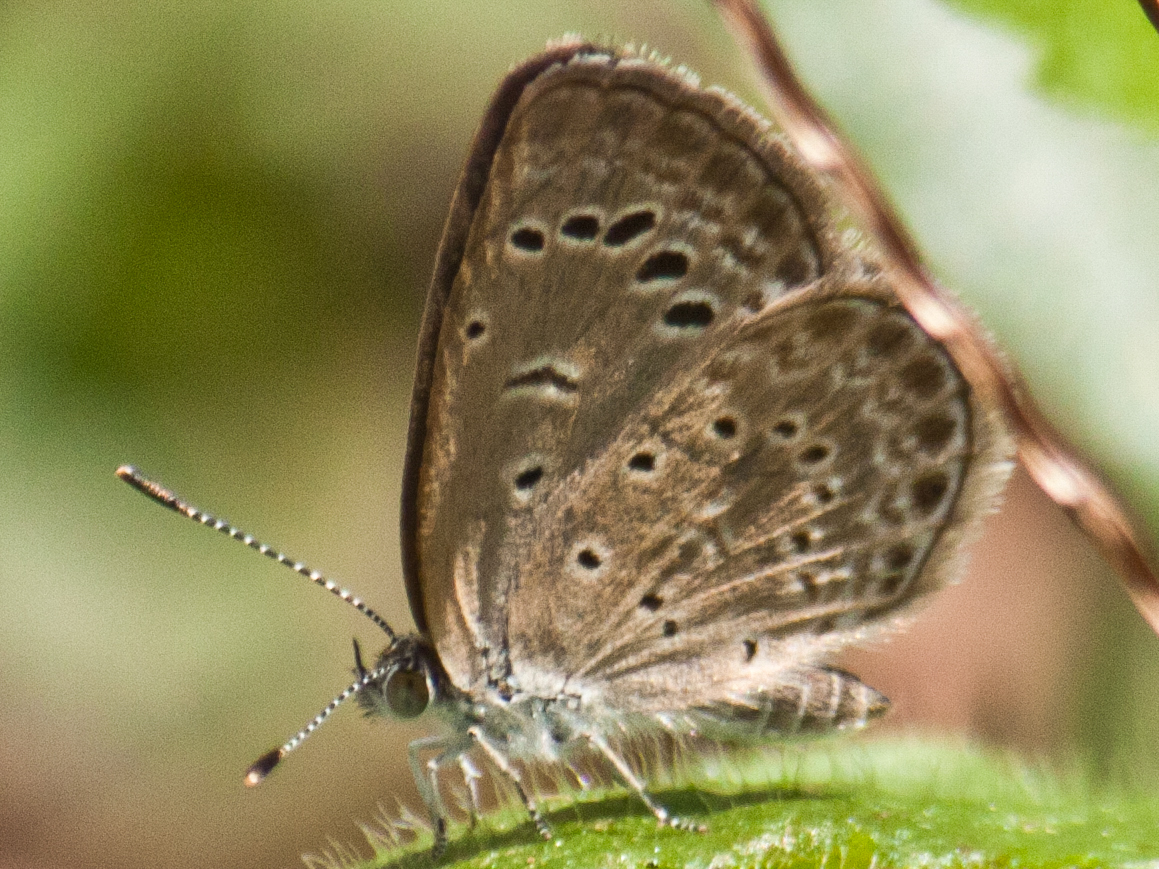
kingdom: Animalia
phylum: Arthropoda
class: Insecta
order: Lepidoptera
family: Lycaenidae
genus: Zizeeria
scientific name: Zizeeria karsandra
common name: Dark grass blue
